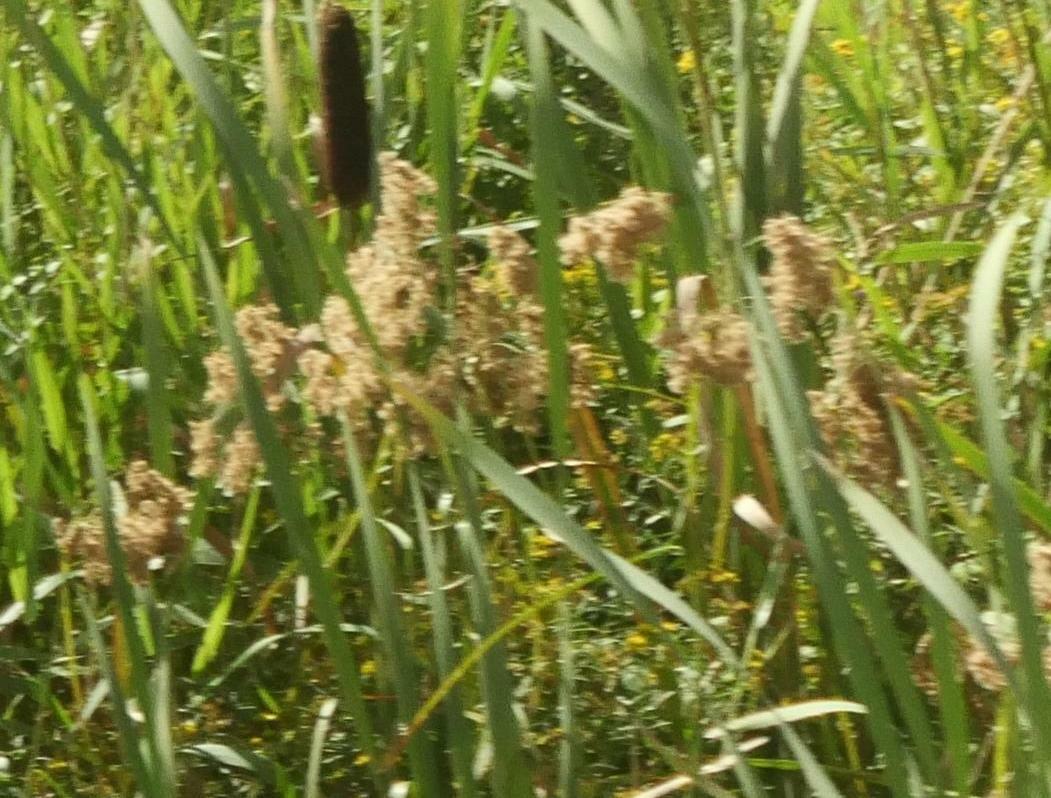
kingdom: Plantae
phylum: Tracheophyta
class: Liliopsida
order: Poales
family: Cyperaceae
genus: Scirpus
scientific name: Scirpus cyperinus
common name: Black-sheathed bulrush
